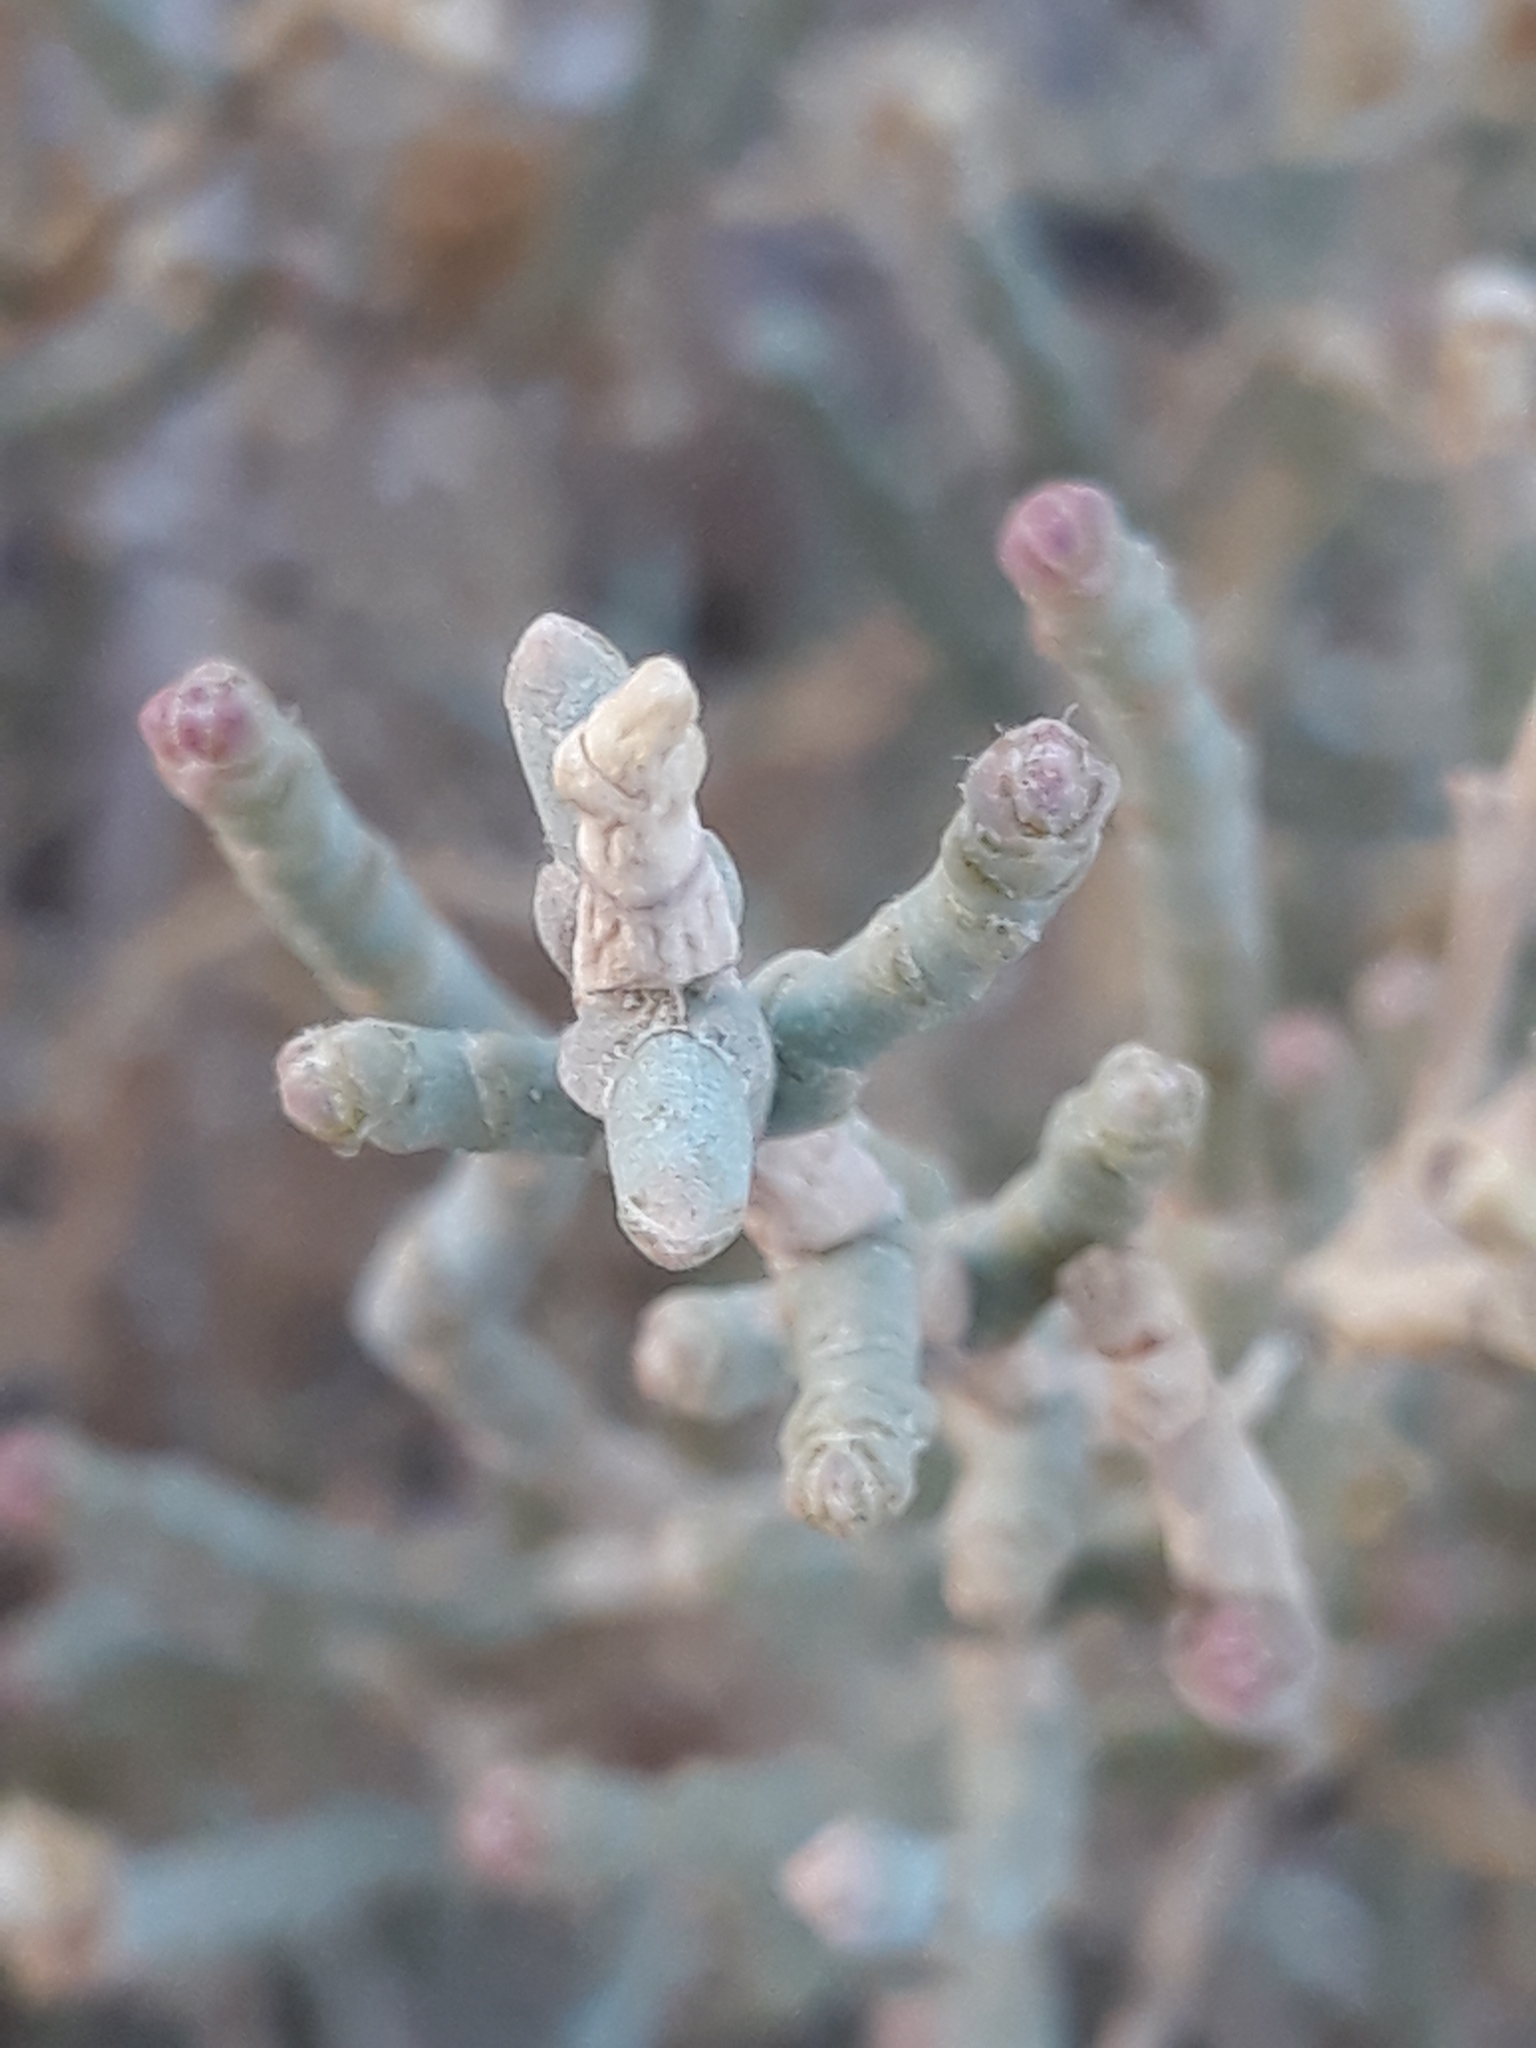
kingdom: Plantae
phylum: Tracheophyta
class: Magnoliopsida
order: Caryophyllales
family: Amaranthaceae
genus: Anabasis
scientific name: Anabasis articulata
